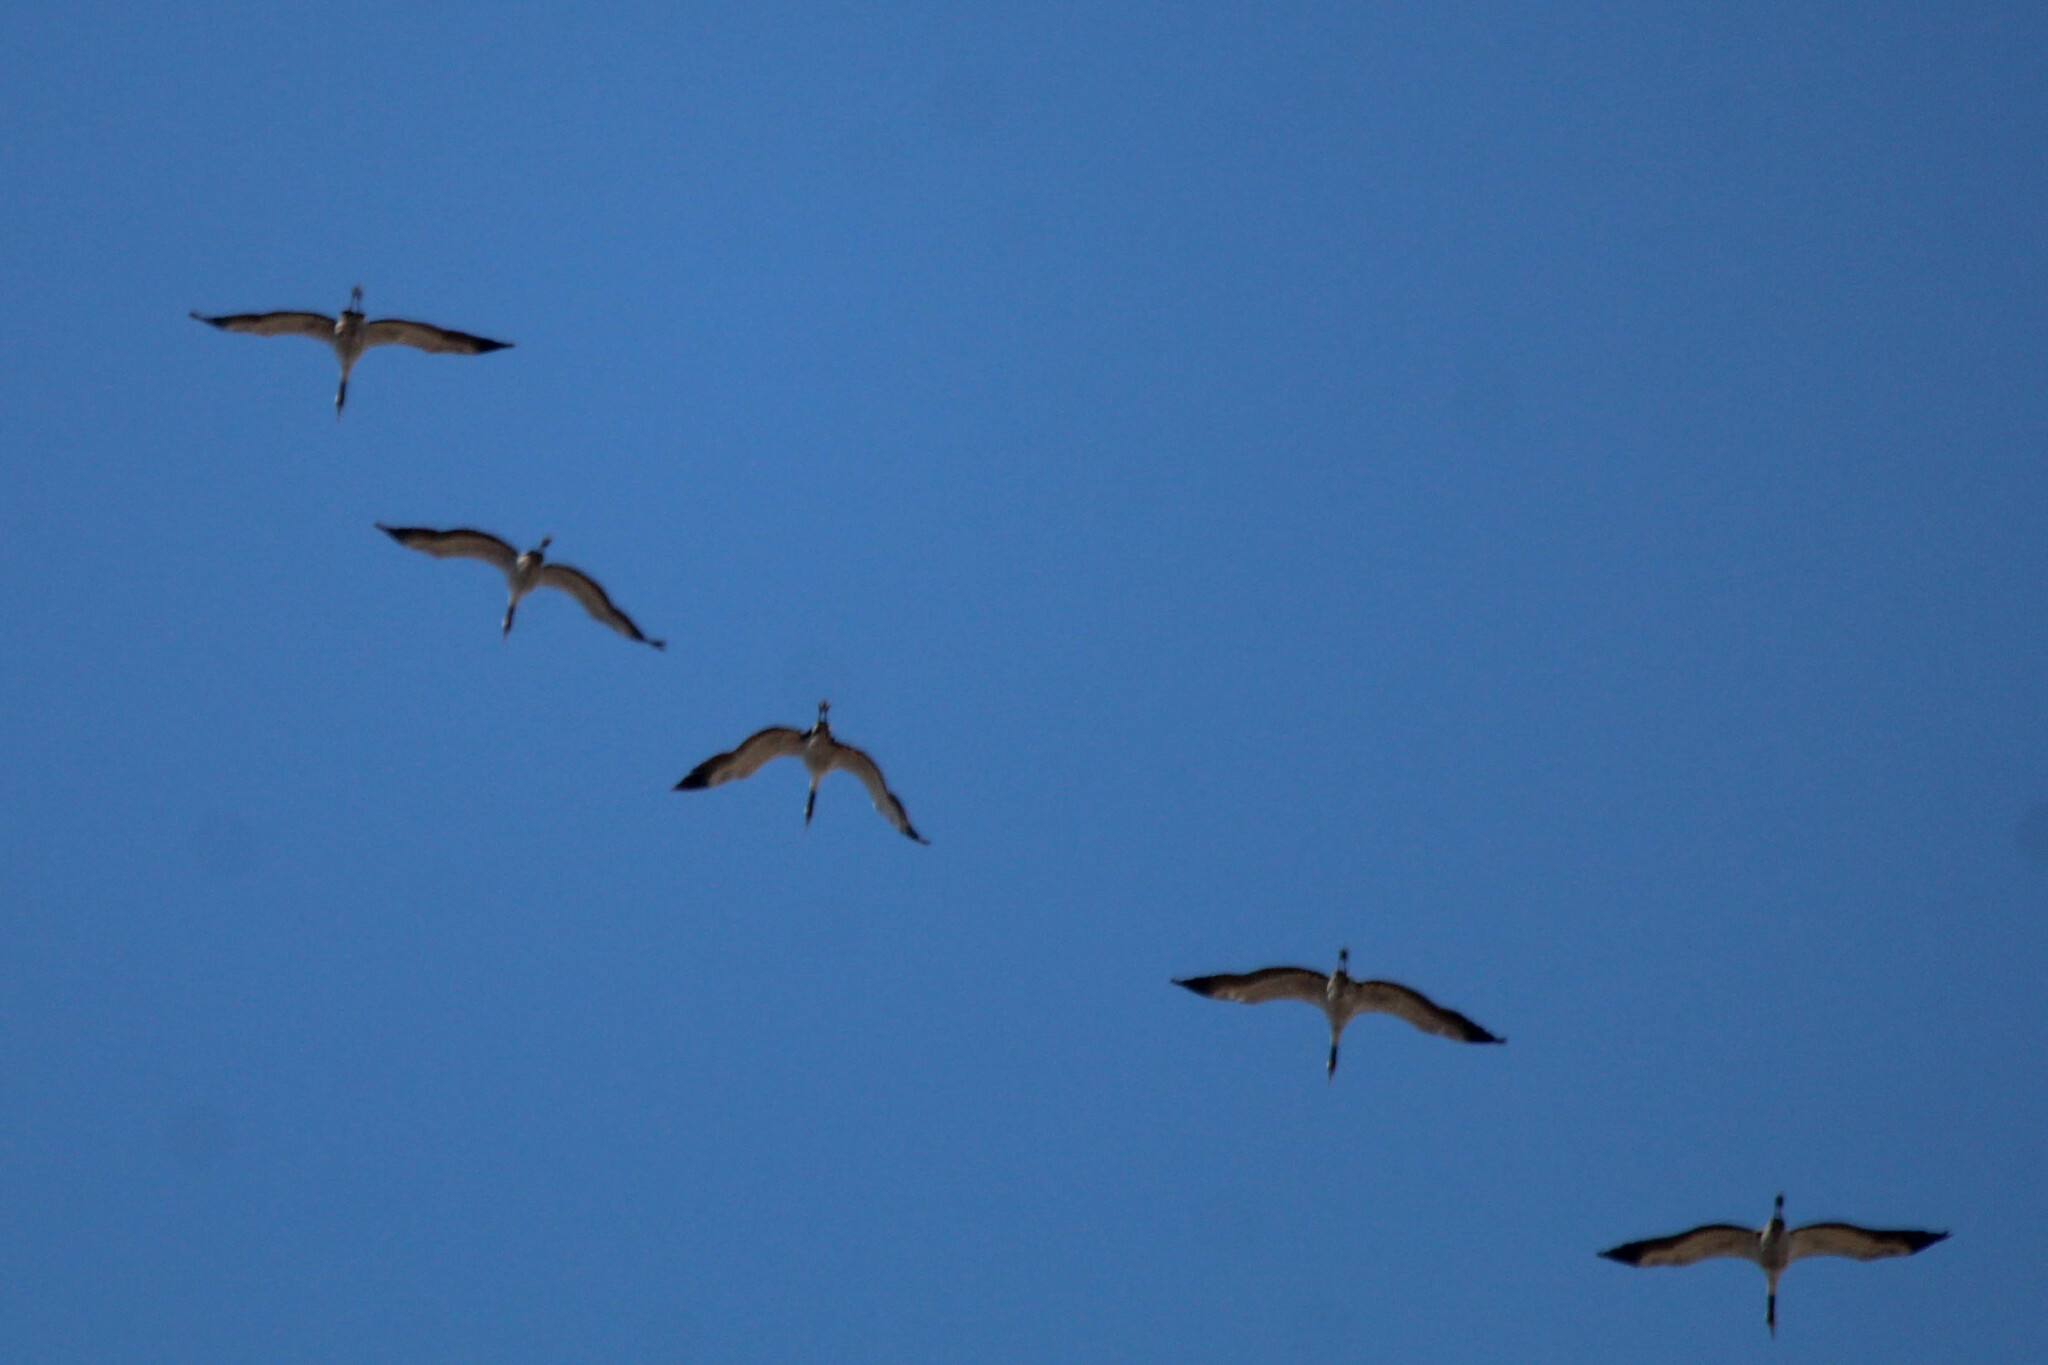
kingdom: Animalia
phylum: Chordata
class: Aves
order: Gruiformes
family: Gruidae
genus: Grus
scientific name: Grus grus
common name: Common crane
